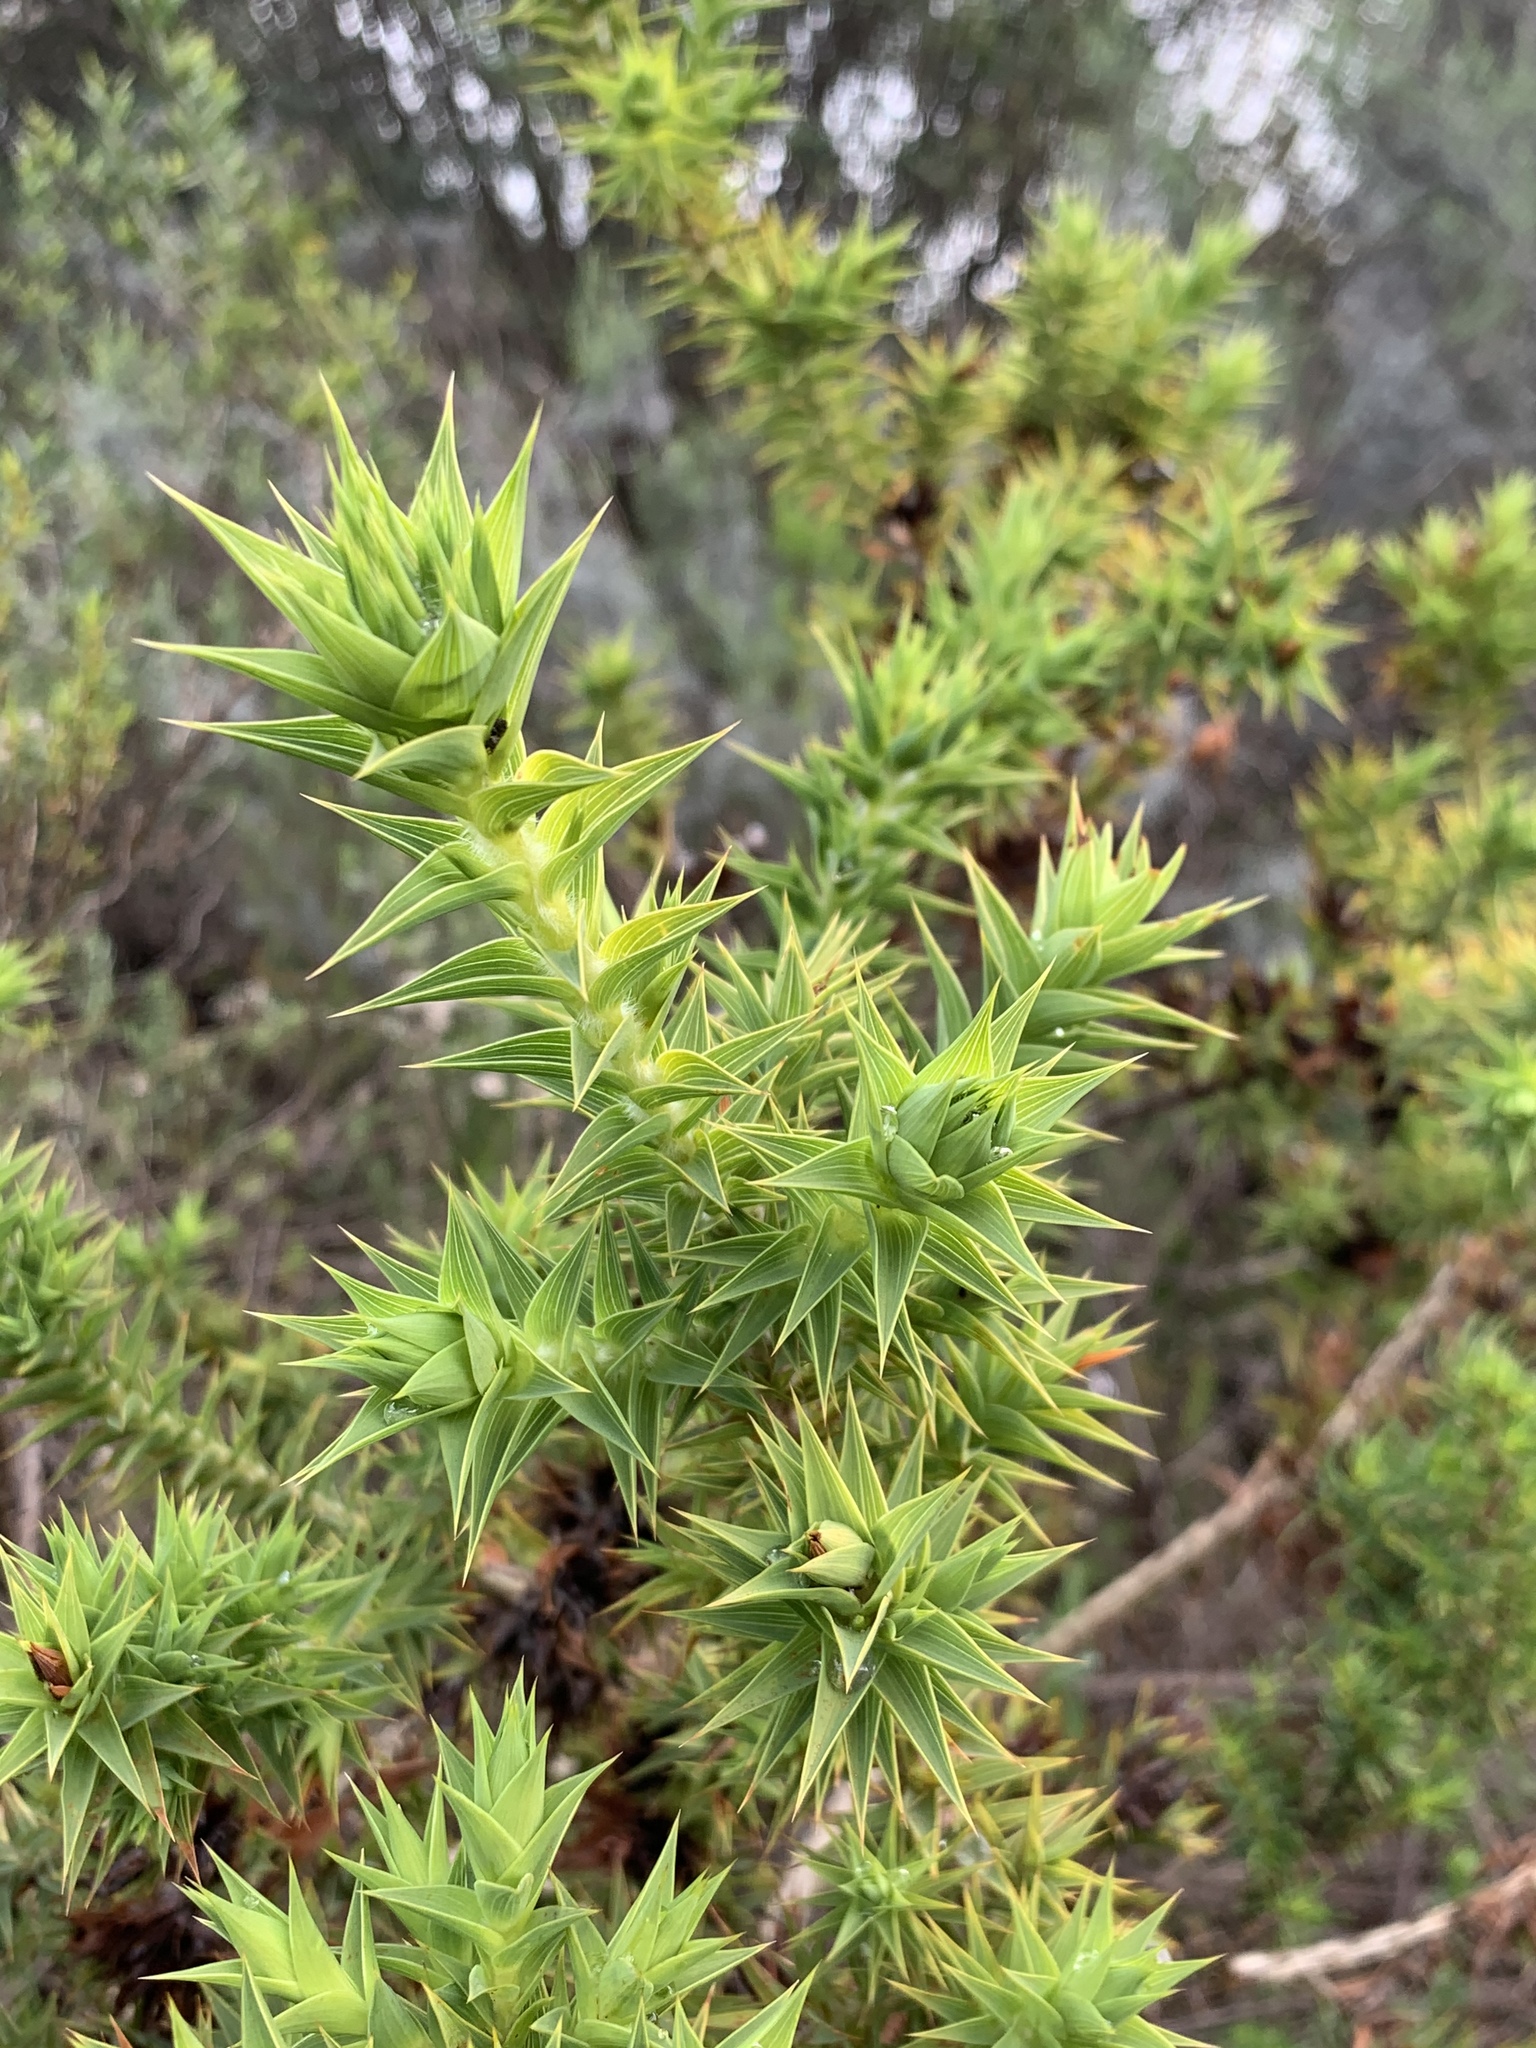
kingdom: Plantae
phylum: Tracheophyta
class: Magnoliopsida
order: Fabales
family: Fabaceae
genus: Aspalathus
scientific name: Aspalathus cordata
